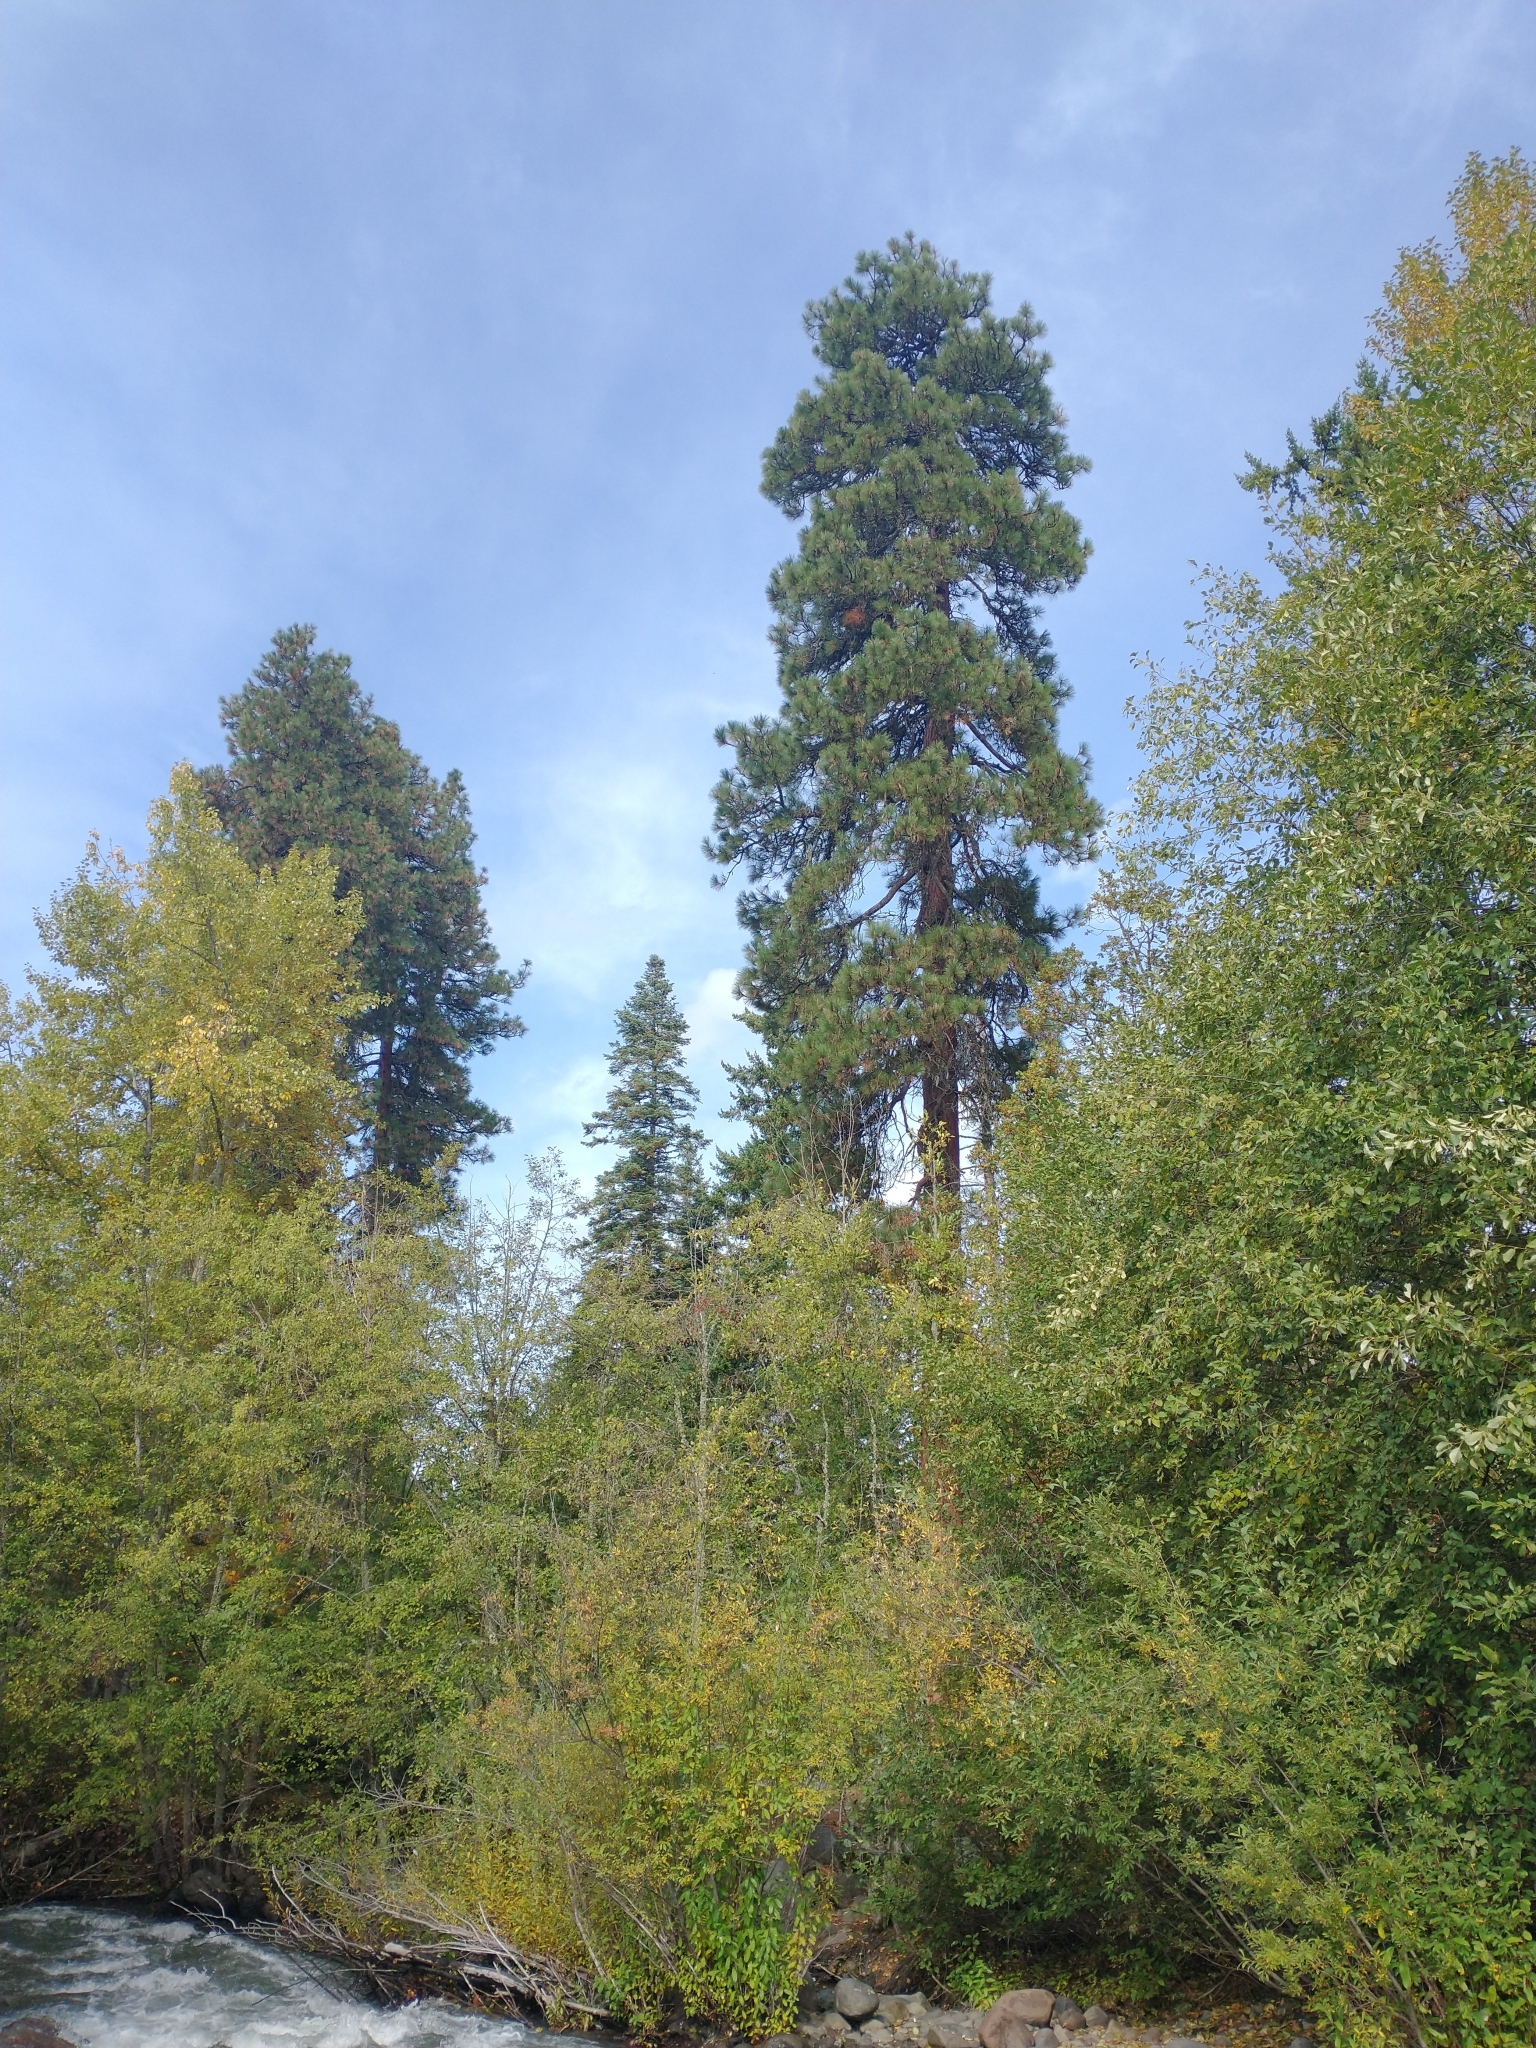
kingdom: Plantae
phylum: Tracheophyta
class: Pinopsida
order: Pinales
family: Pinaceae
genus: Pinus
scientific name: Pinus ponderosa
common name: Western yellow-pine
